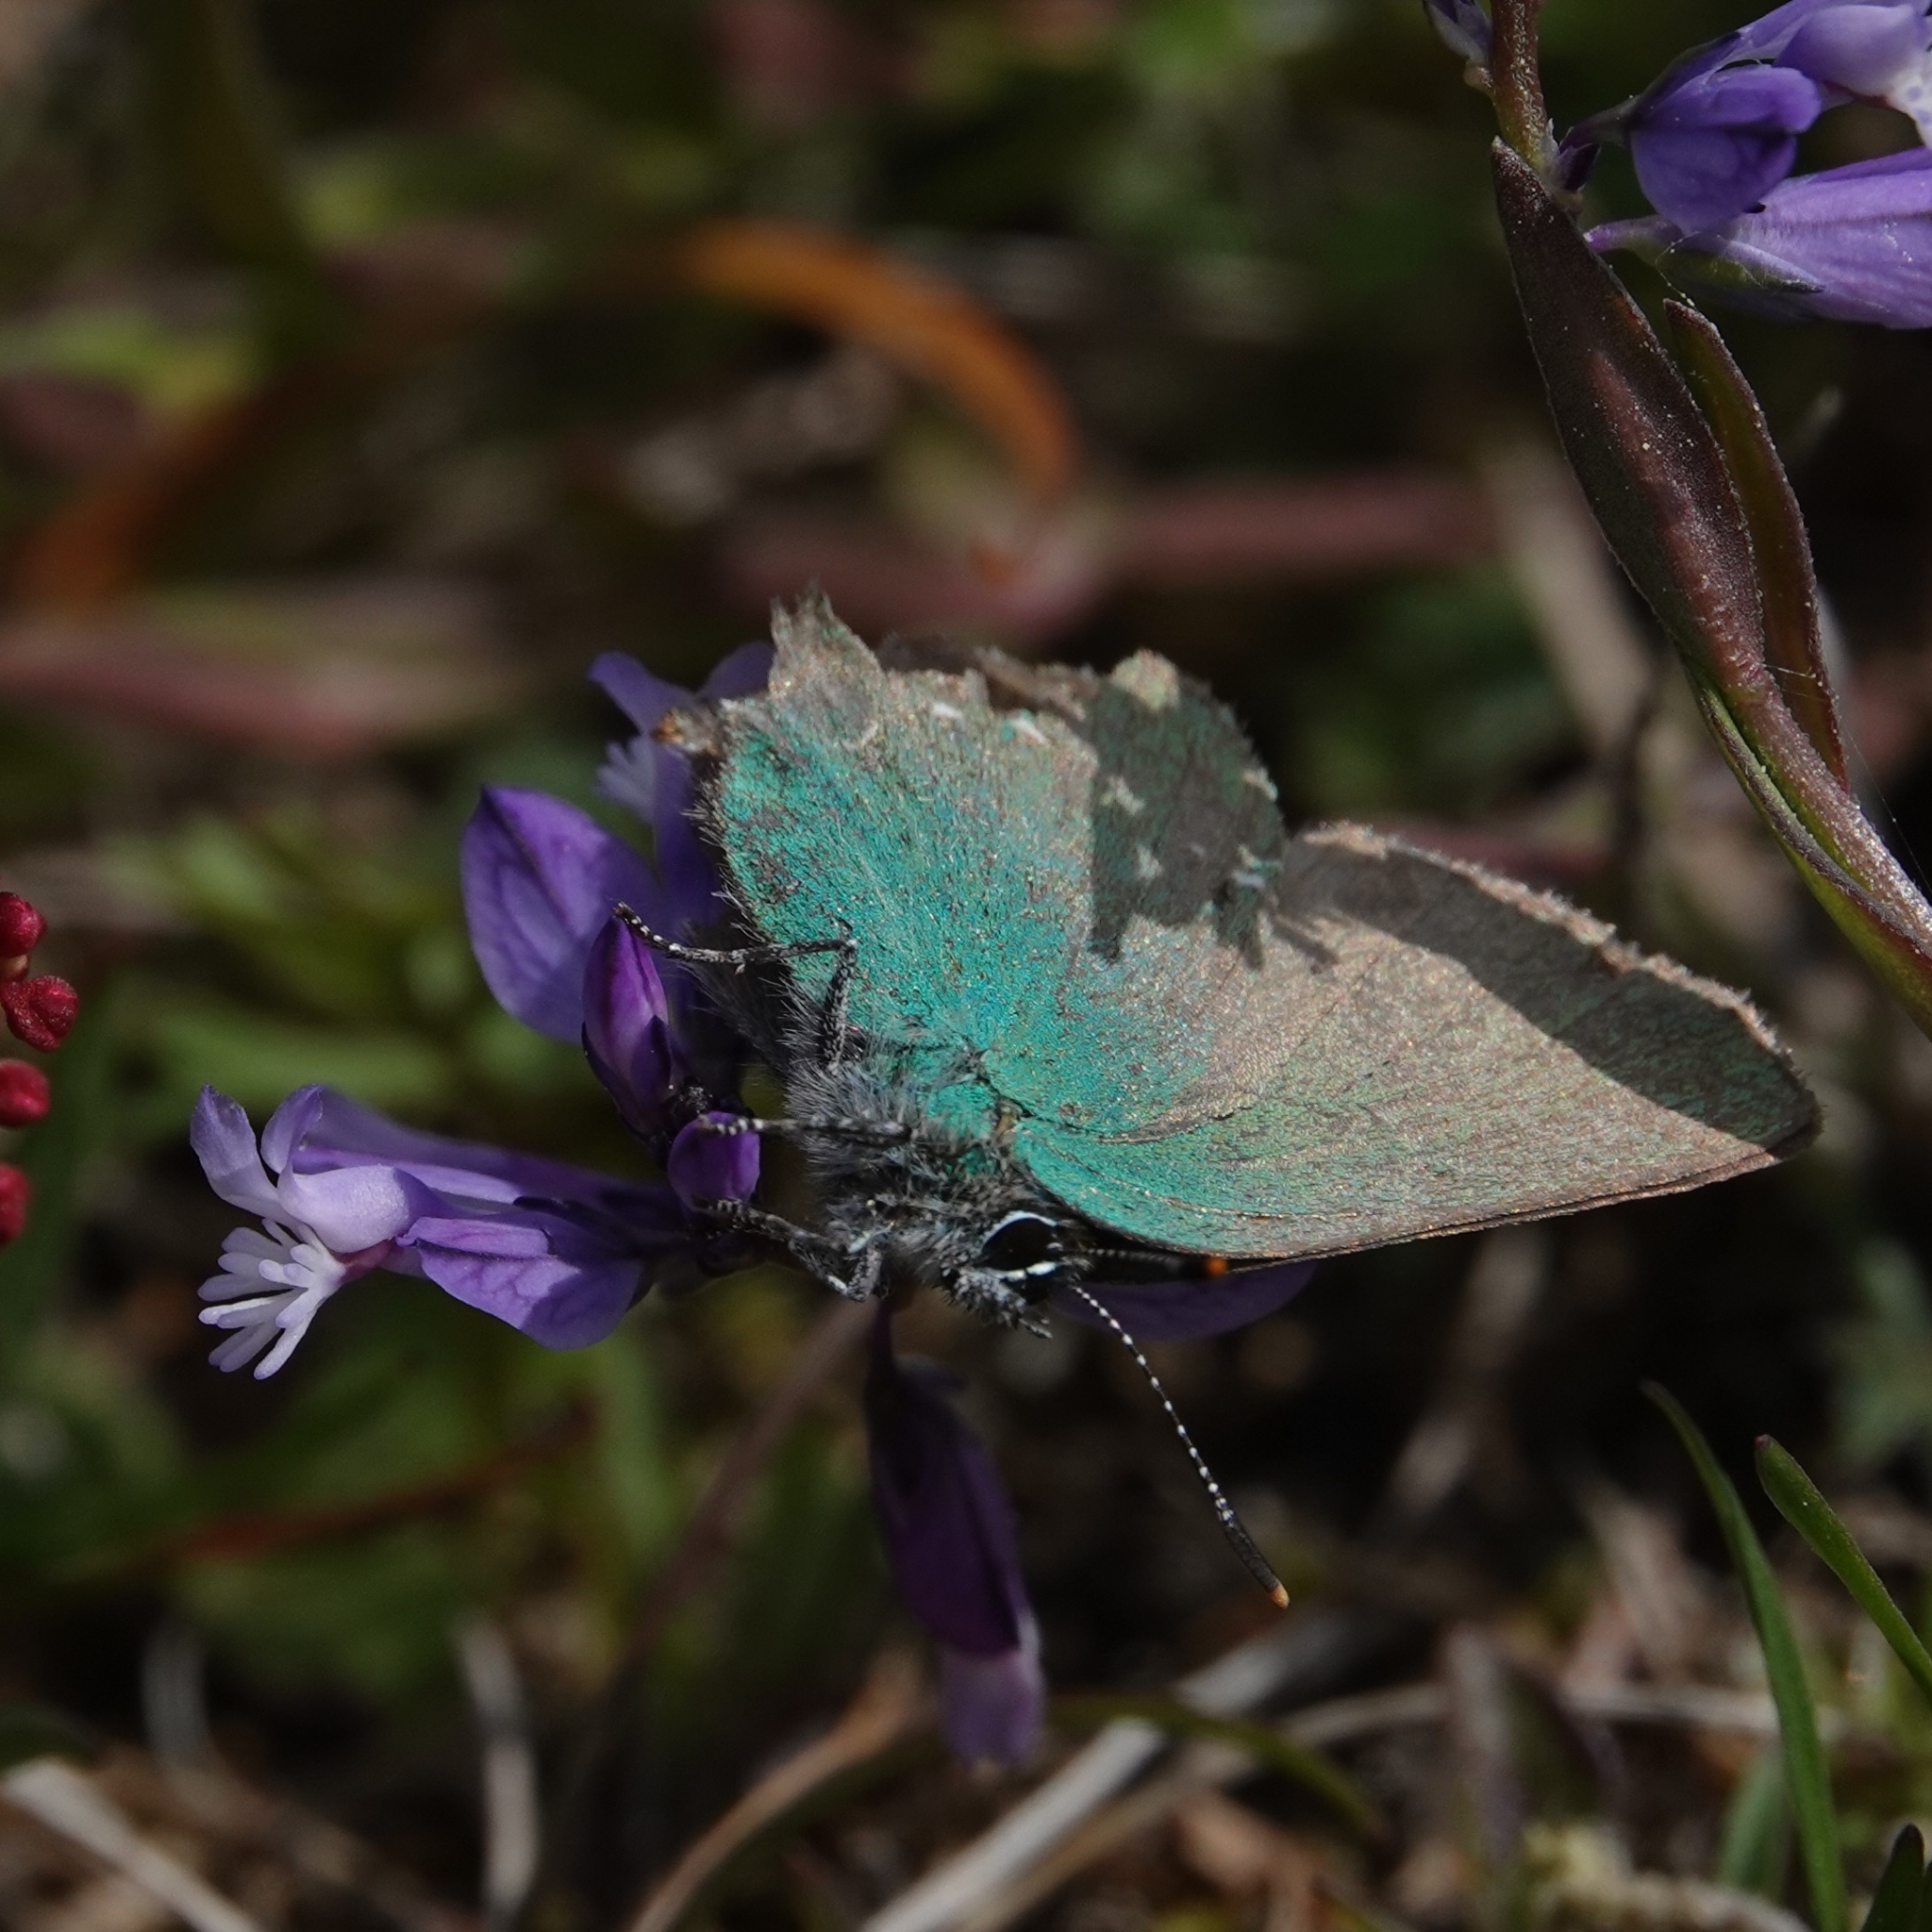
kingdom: Animalia
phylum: Arthropoda
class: Insecta
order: Lepidoptera
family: Lycaenidae
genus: Callophrys
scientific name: Callophrys rubi
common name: Green hairstreak
